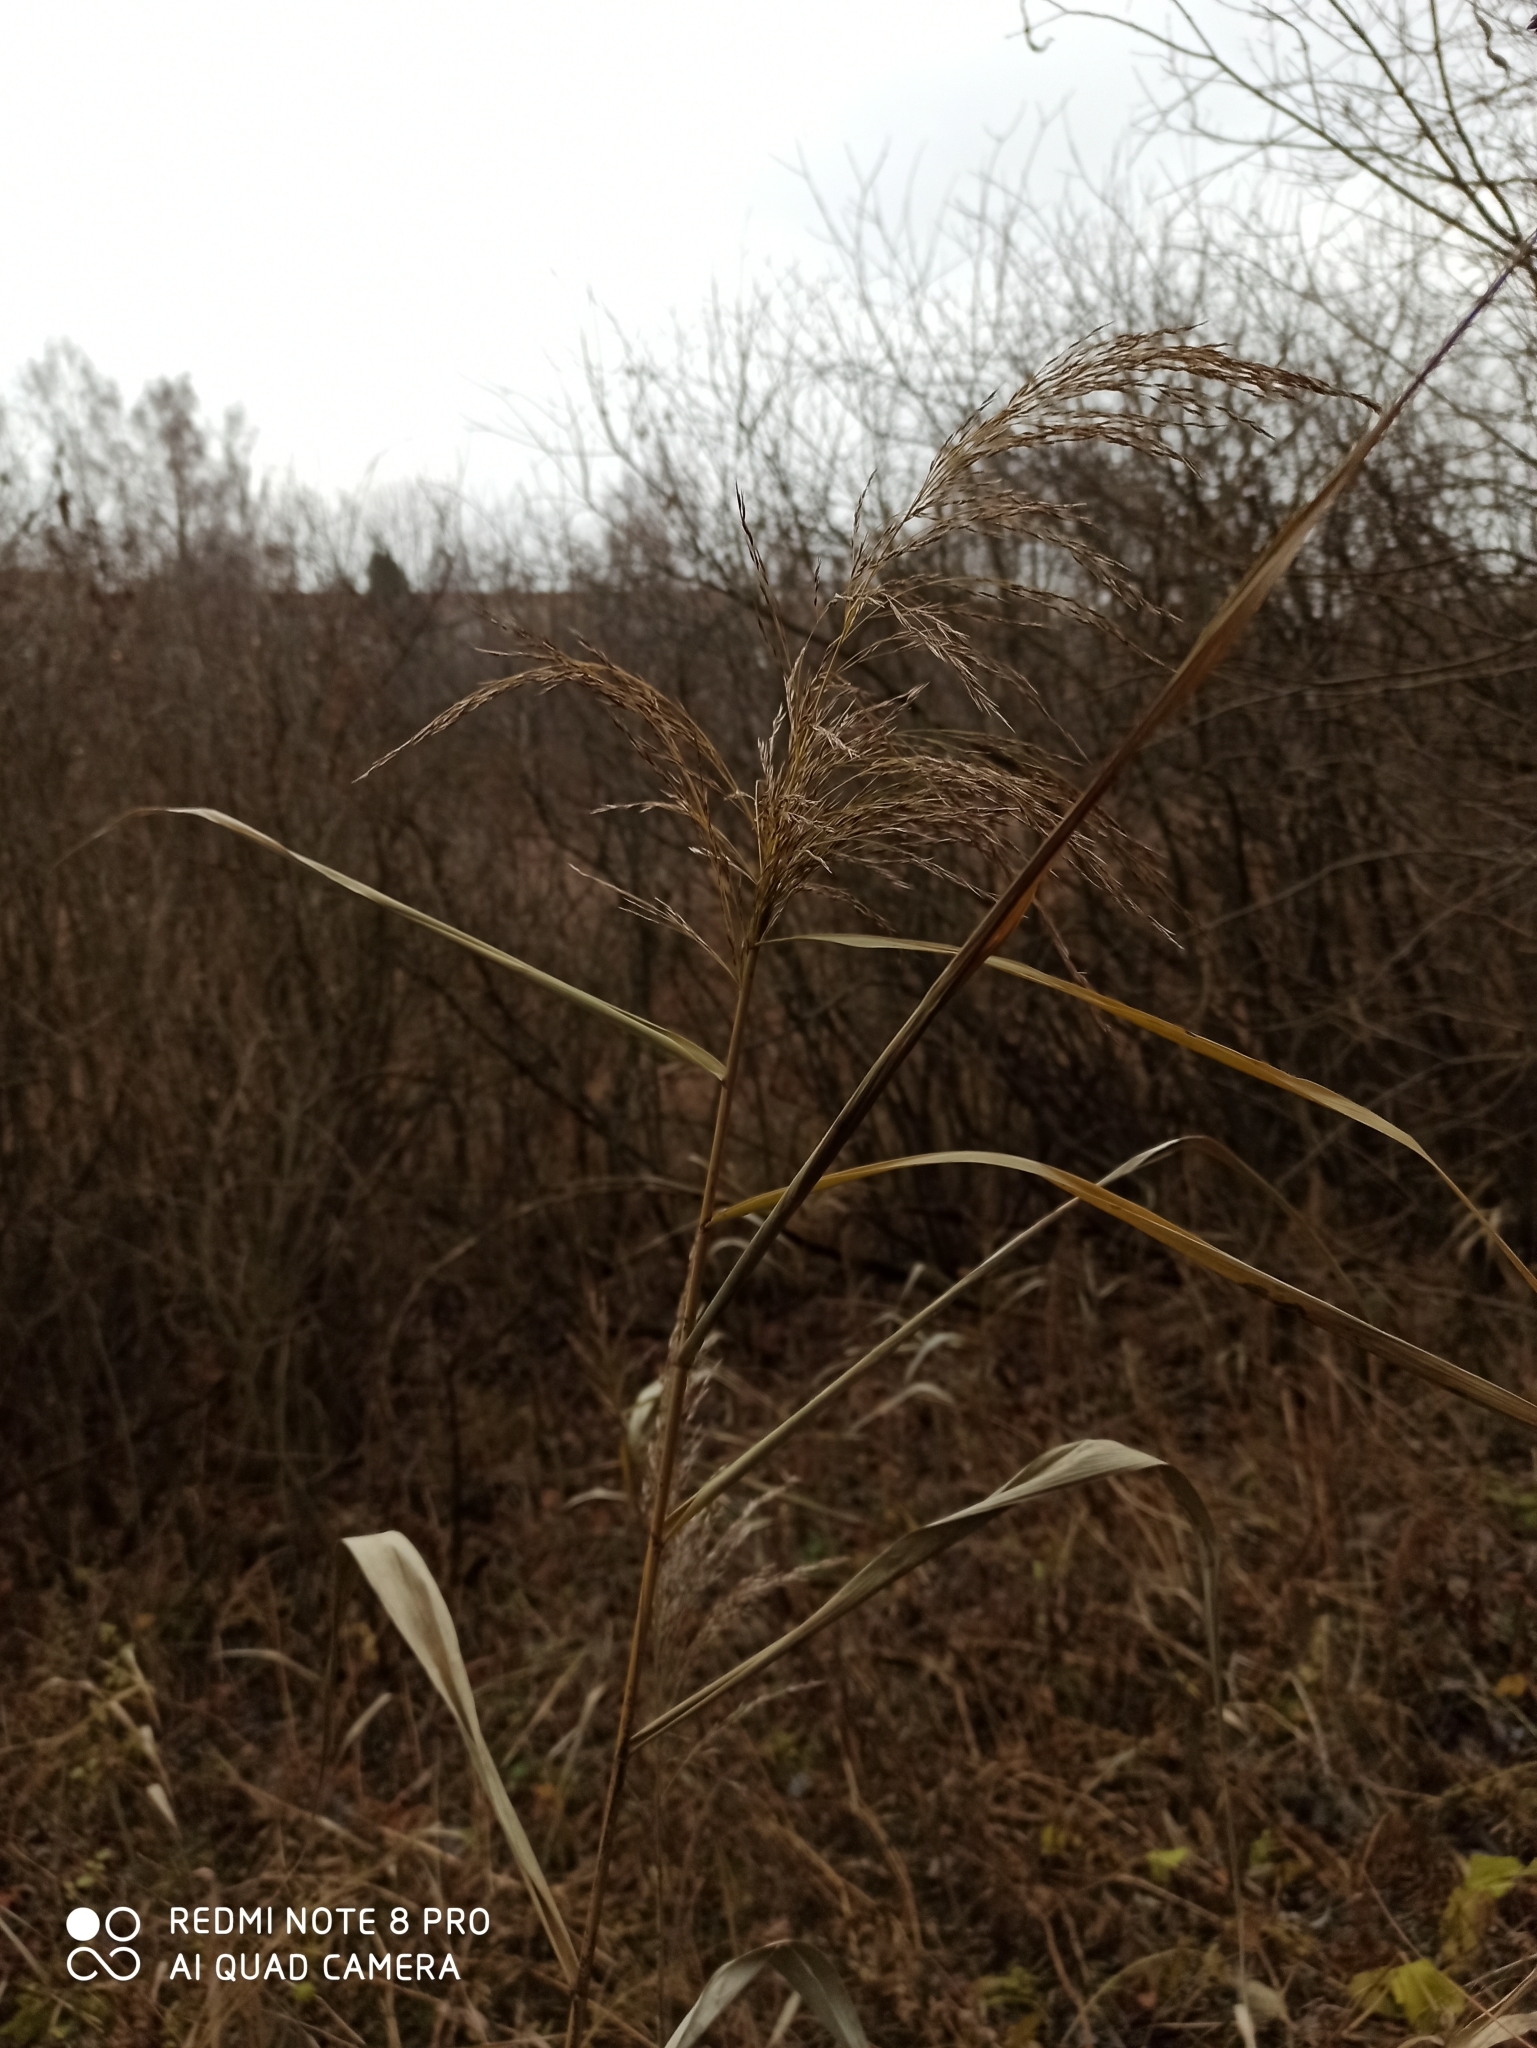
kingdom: Plantae
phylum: Tracheophyta
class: Liliopsida
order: Poales
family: Poaceae
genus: Phragmites
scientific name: Phragmites australis
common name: Common reed
